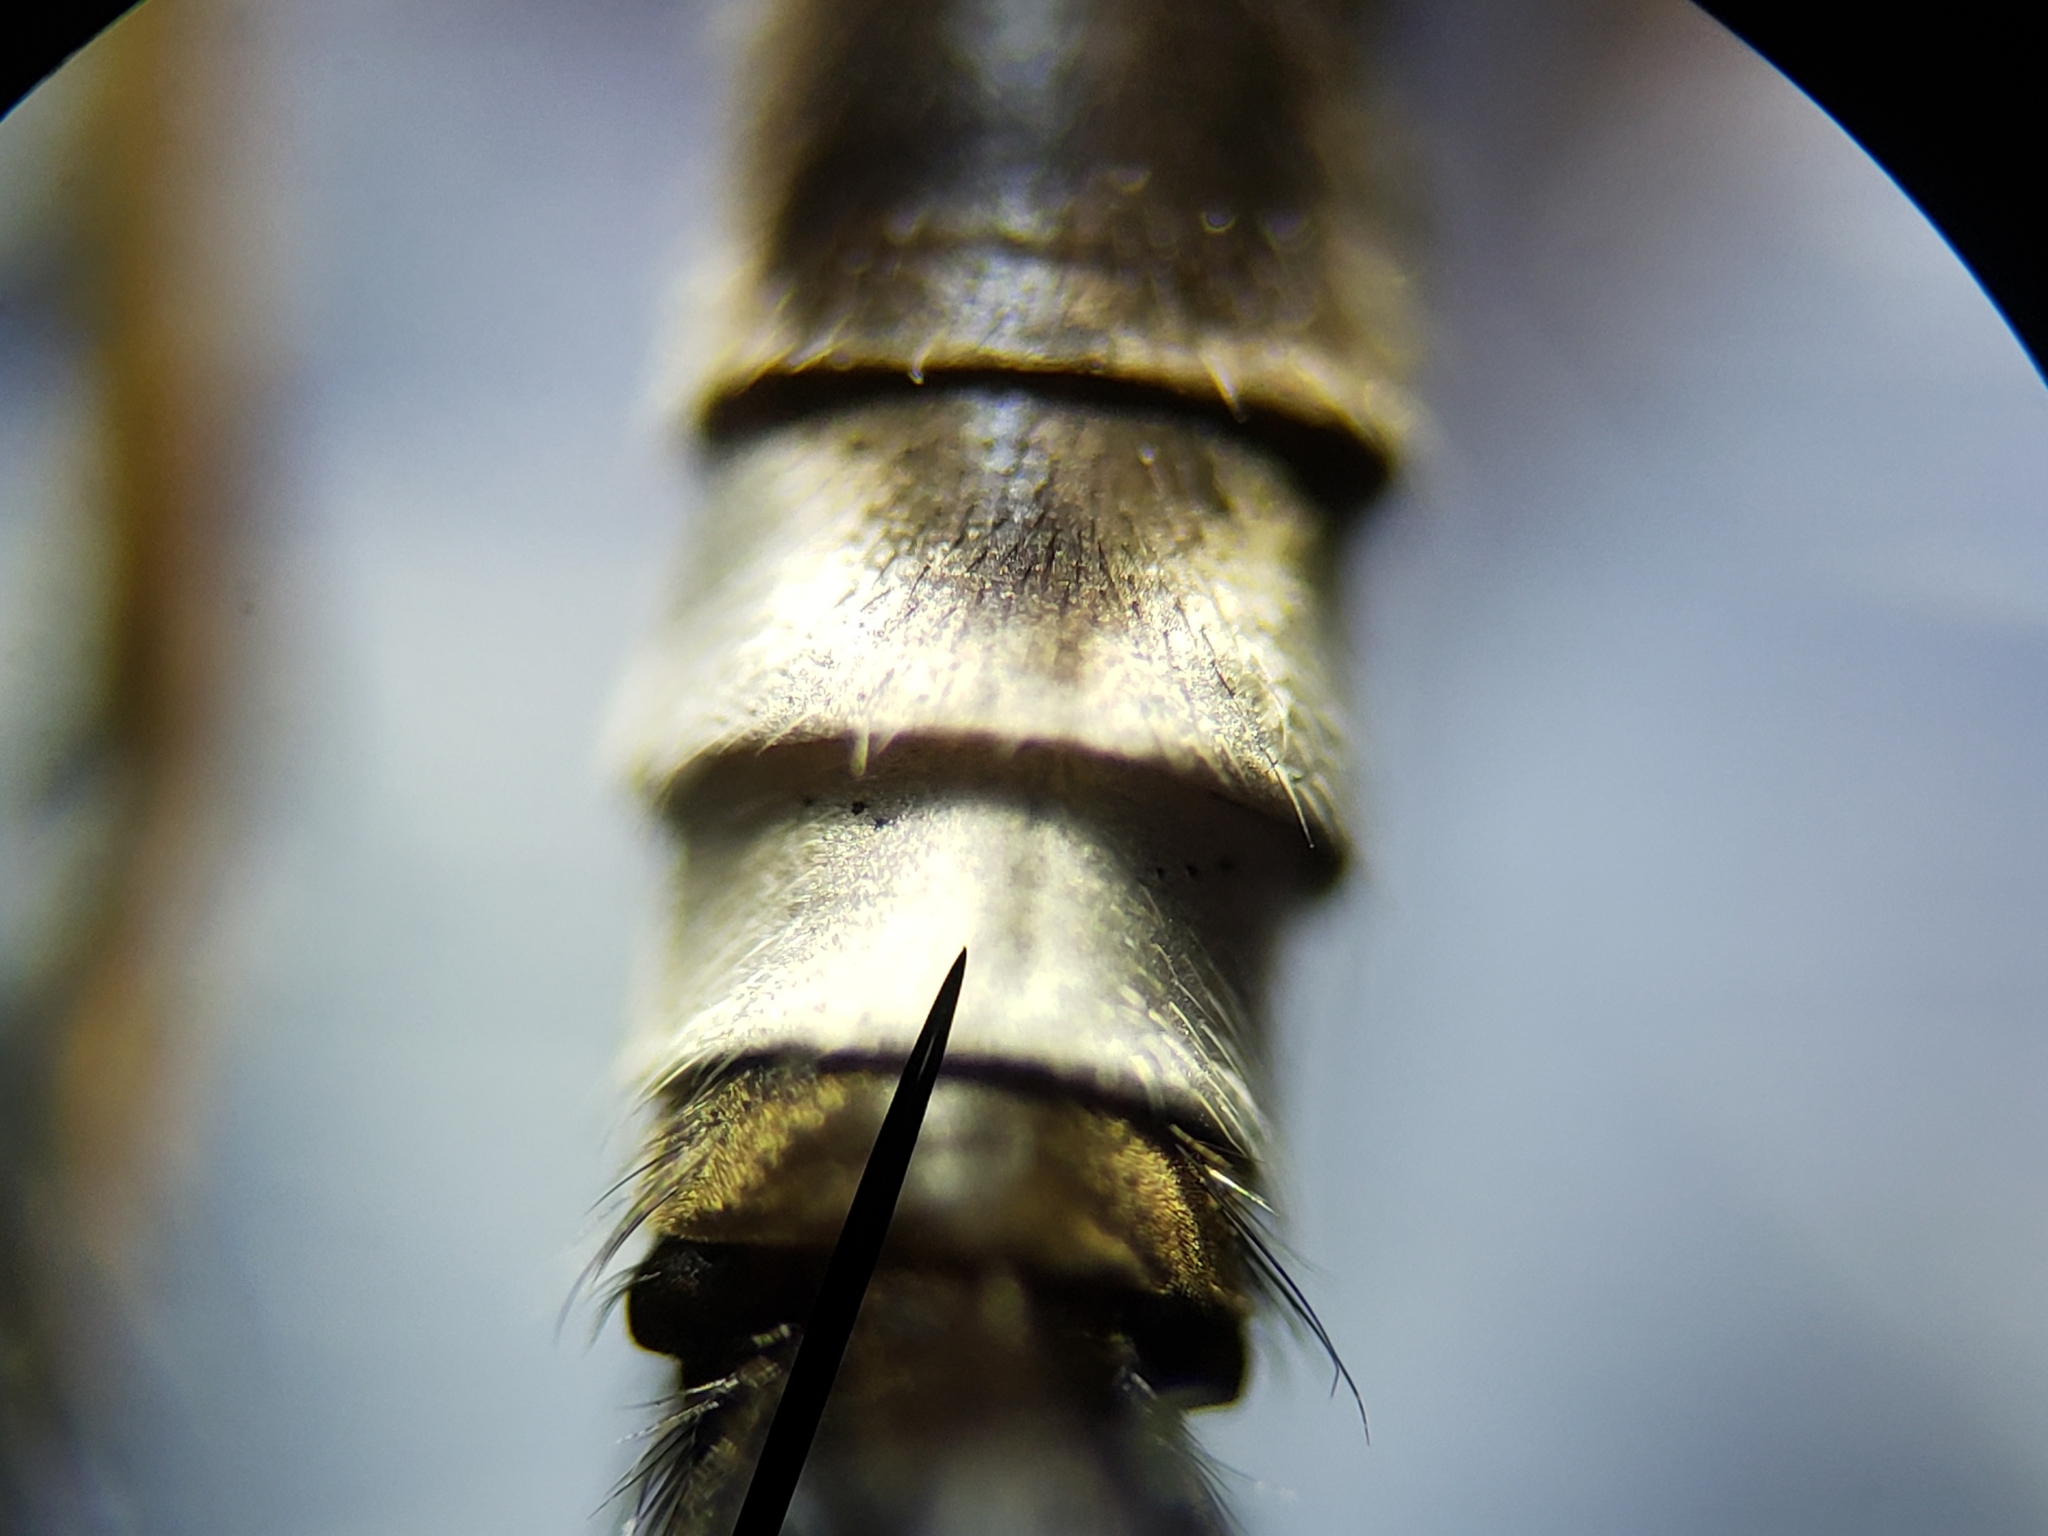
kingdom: Animalia
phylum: Arthropoda
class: Insecta
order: Diptera
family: Asilidae
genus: Efferia
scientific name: Efferia tabescens
